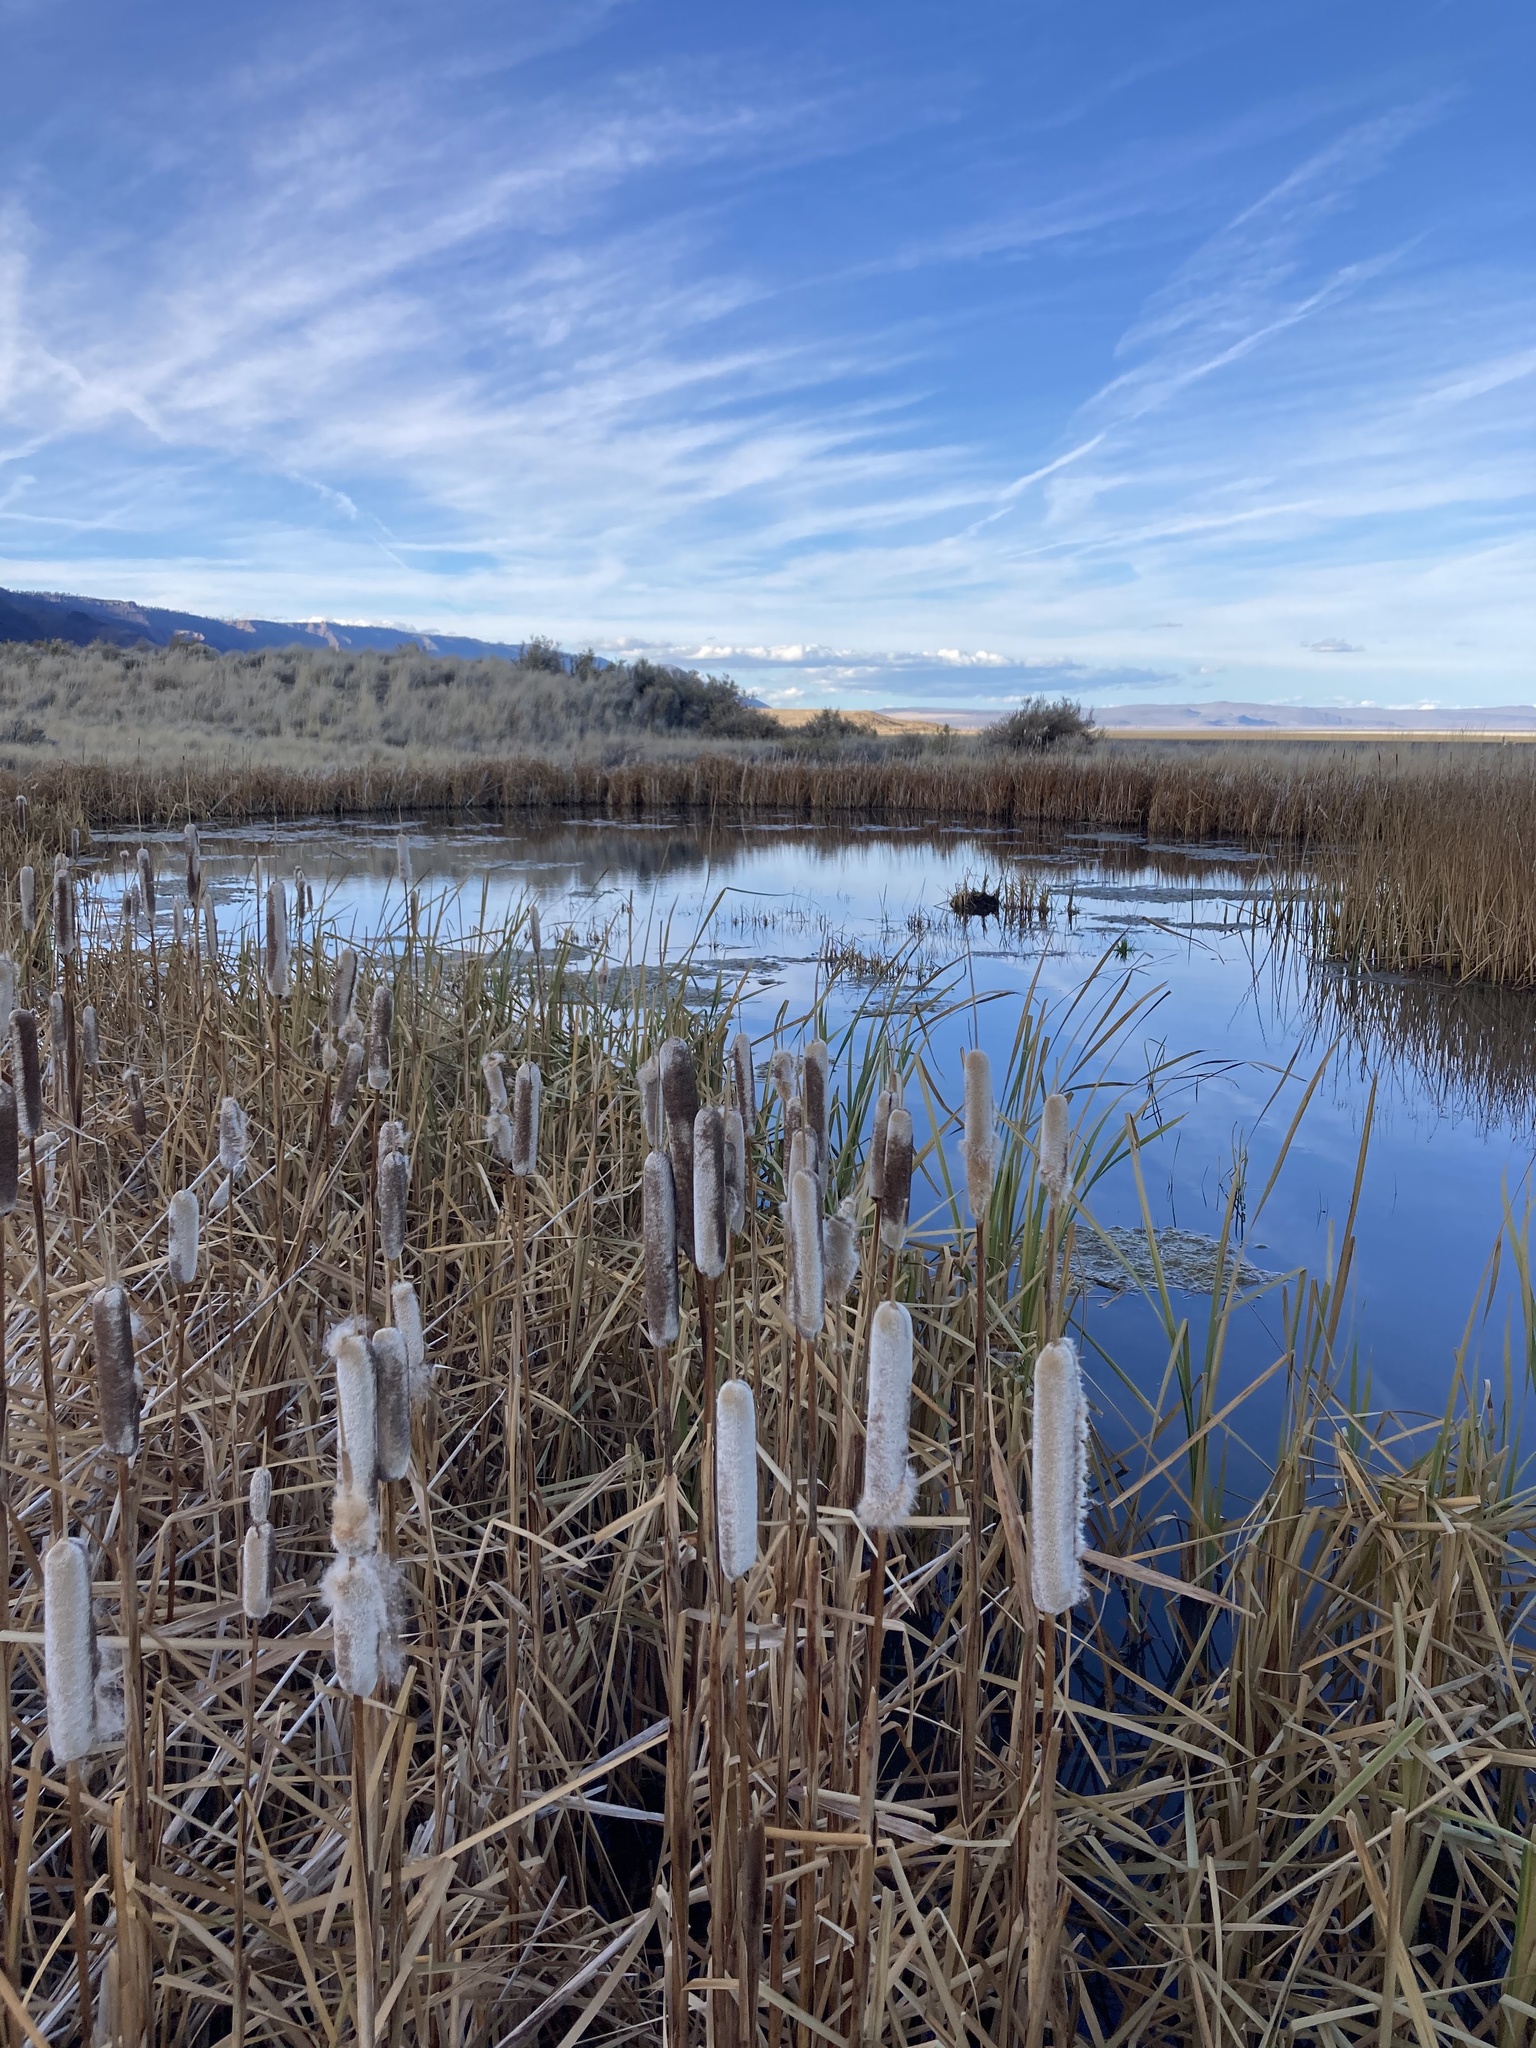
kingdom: Plantae
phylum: Tracheophyta
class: Liliopsida
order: Poales
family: Typhaceae
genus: Typha
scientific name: Typha latifolia
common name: Broadleaf cattail
